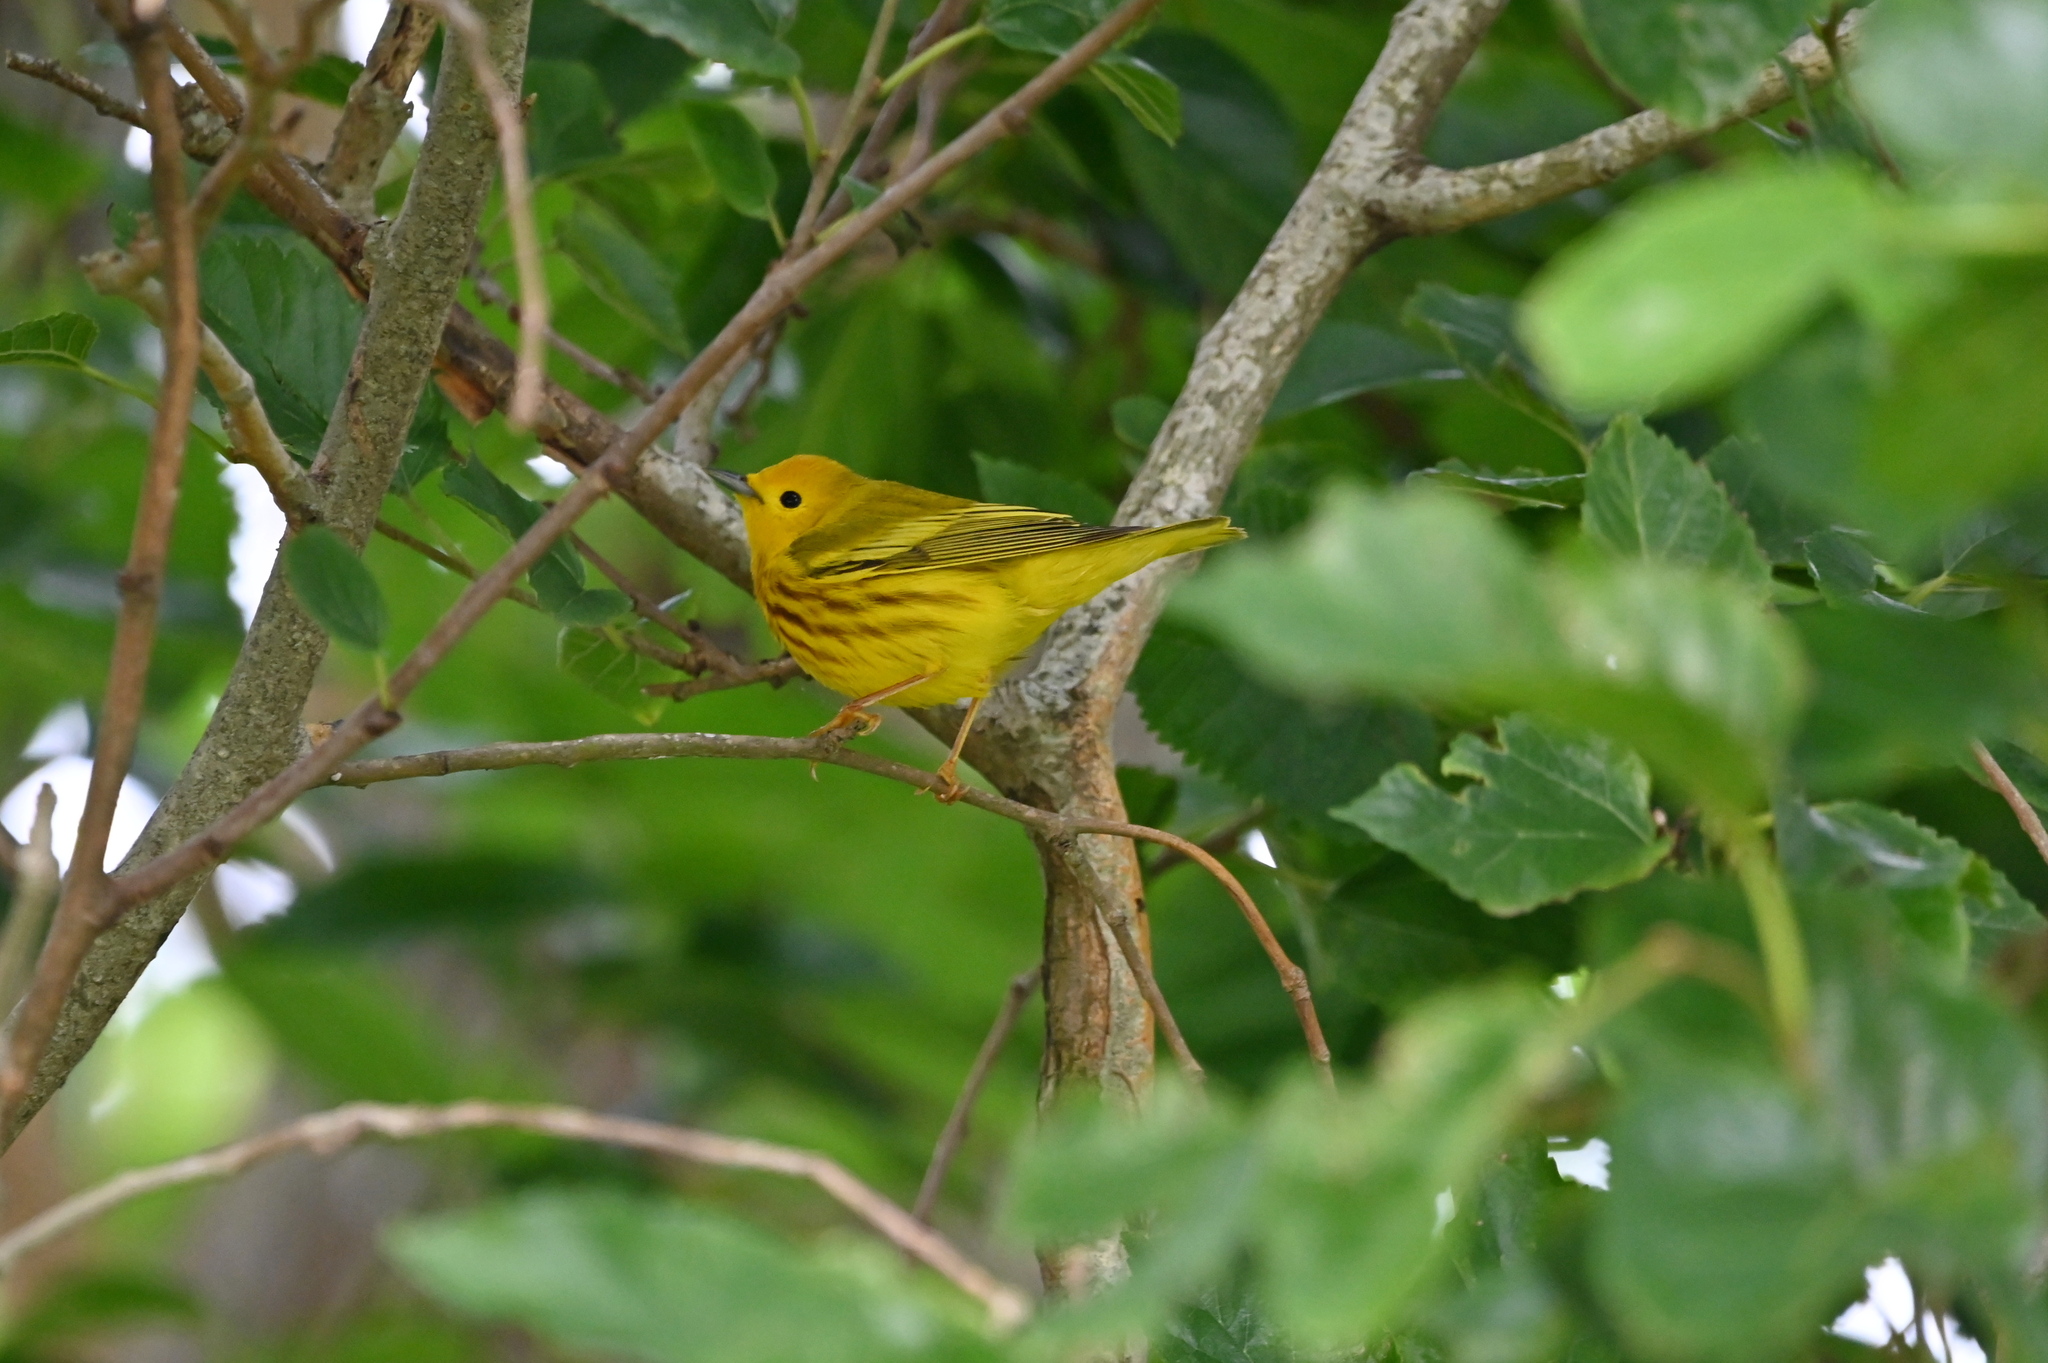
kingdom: Animalia
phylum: Chordata
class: Aves
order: Passeriformes
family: Parulidae
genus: Setophaga
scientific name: Setophaga petechia
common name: Yellow warbler
